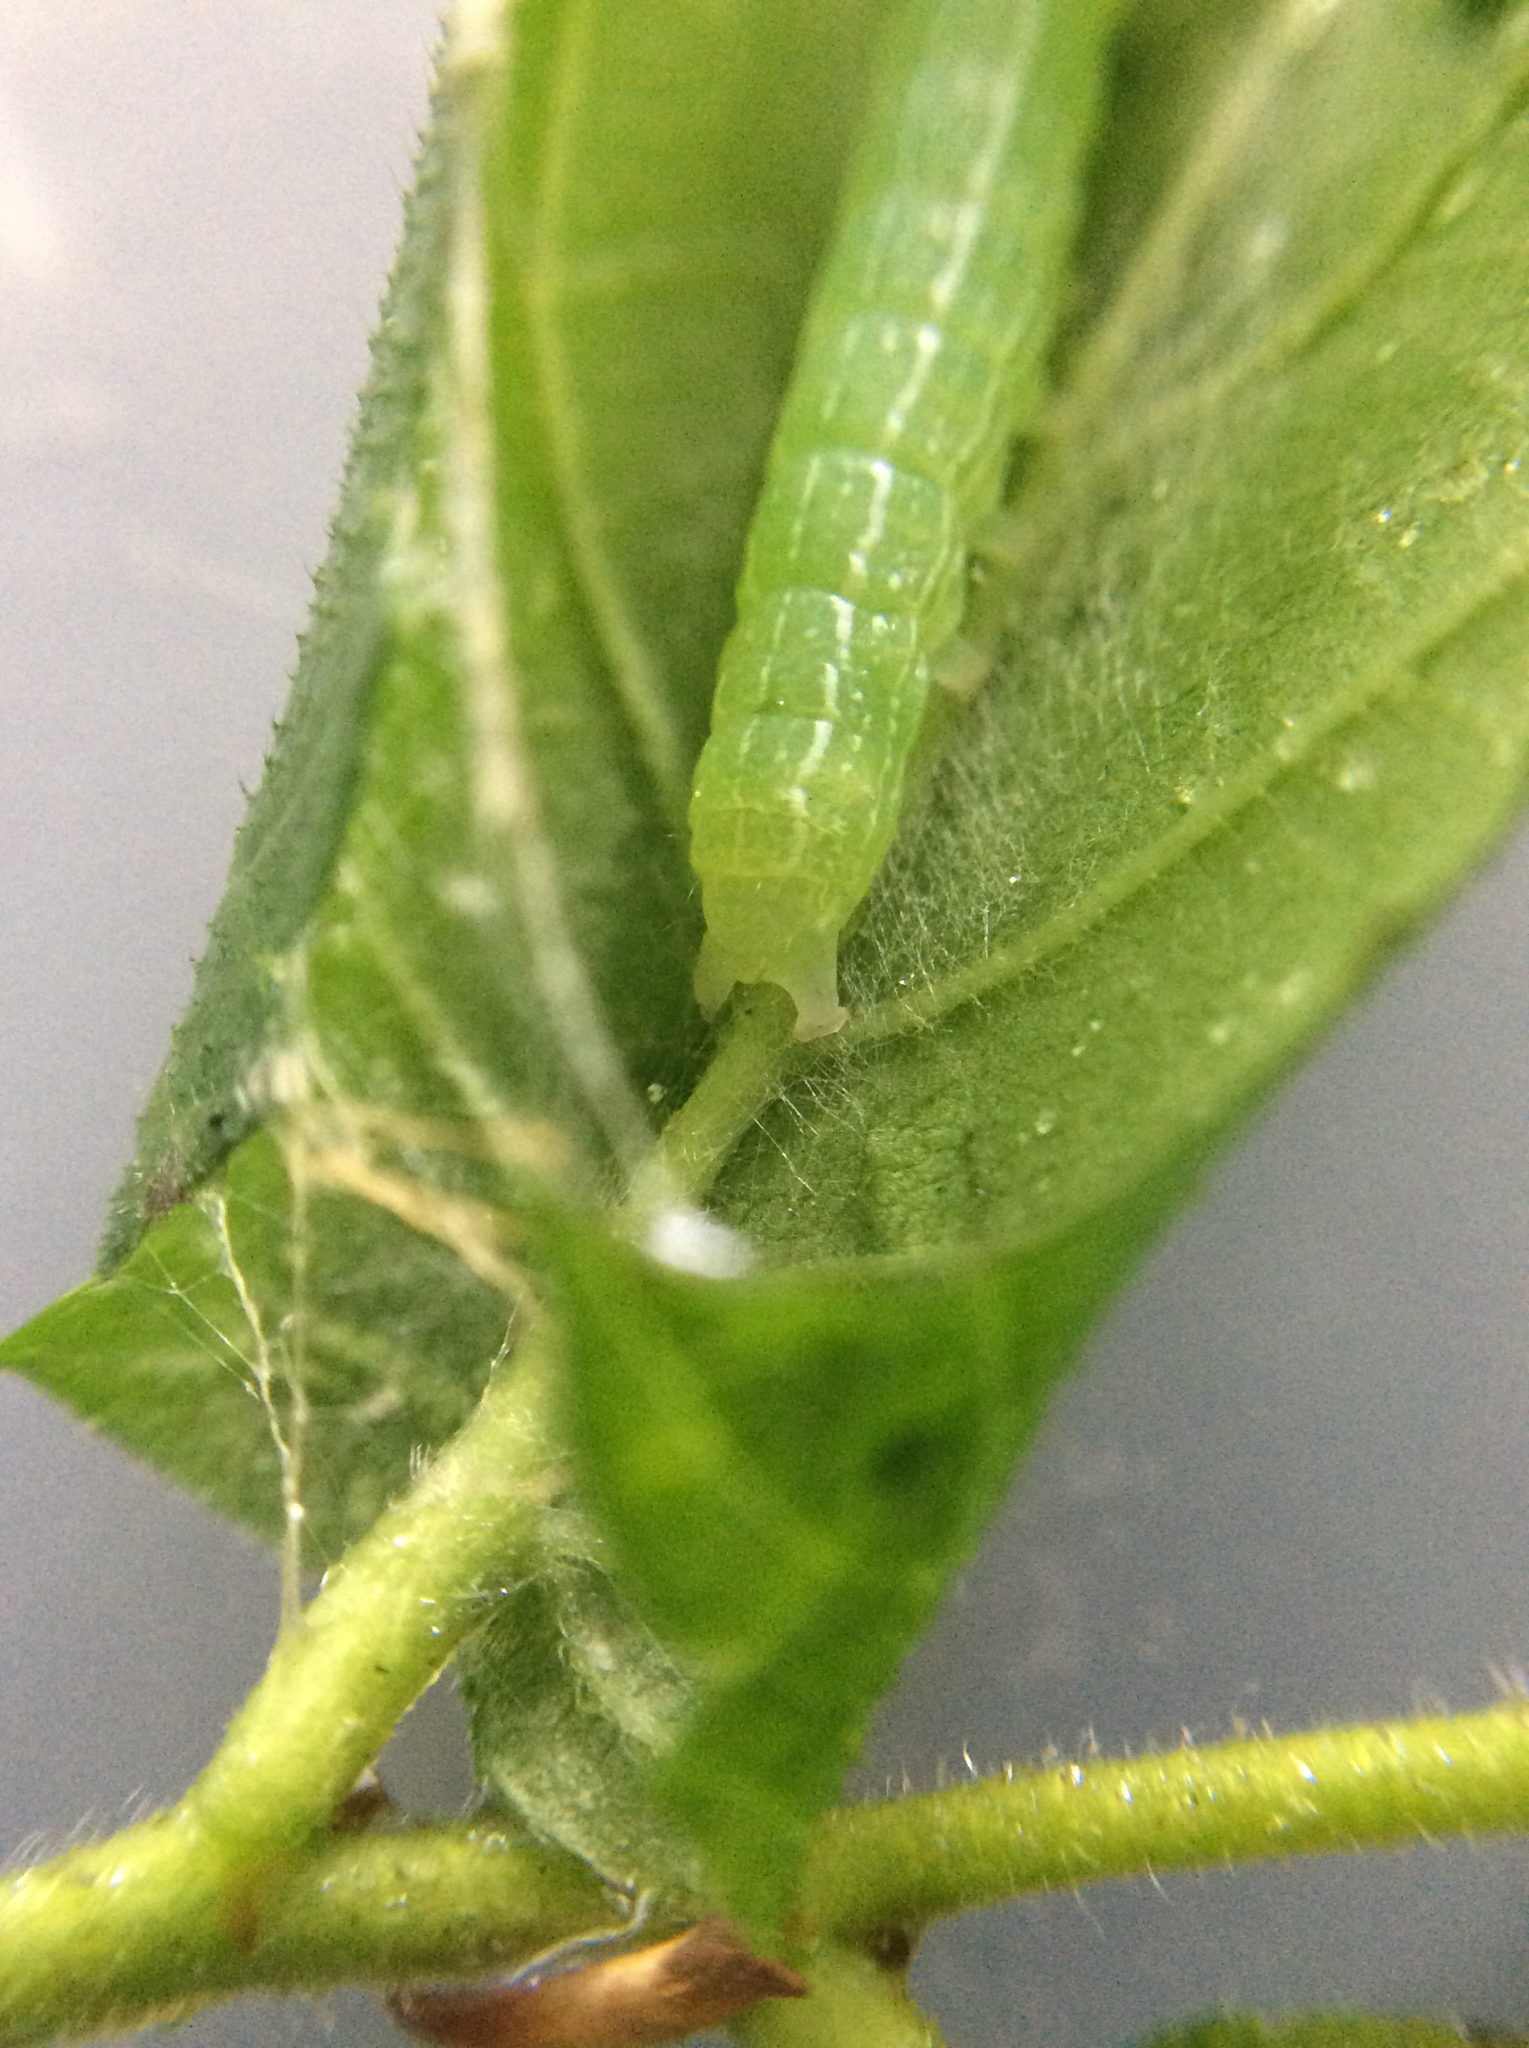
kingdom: Animalia
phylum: Arthropoda
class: Insecta
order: Lepidoptera
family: Noctuidae
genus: Achatia
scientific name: Achatia distincta
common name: Distinct quaker
